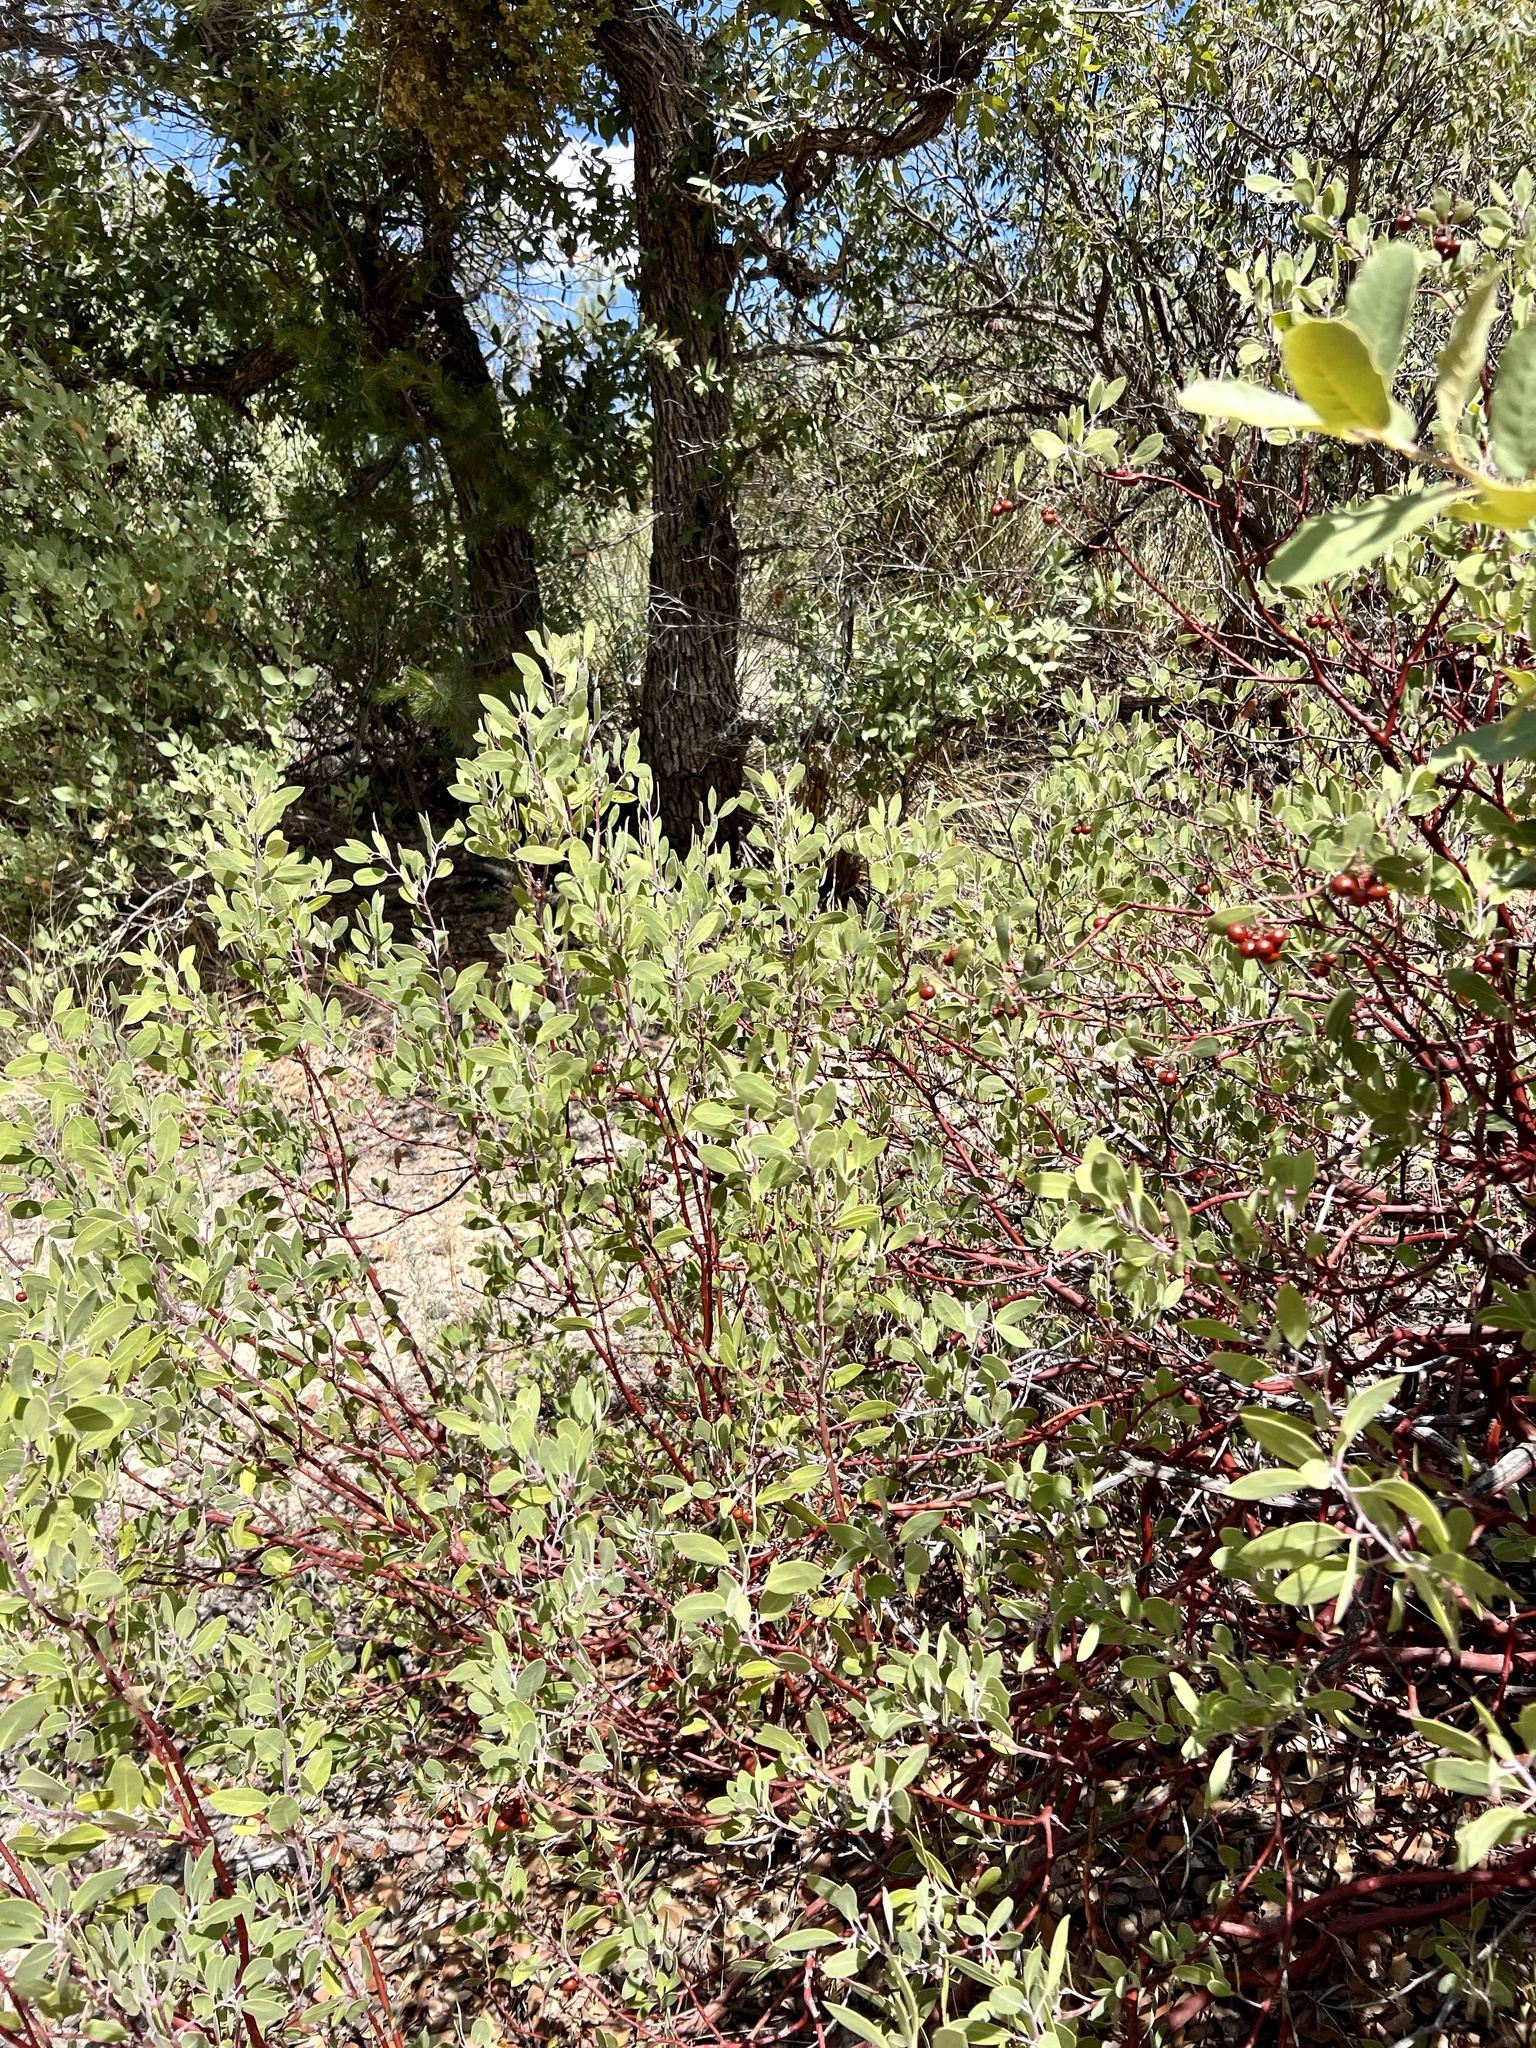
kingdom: Plantae
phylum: Tracheophyta
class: Magnoliopsida
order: Ericales
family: Ericaceae
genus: Arctostaphylos
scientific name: Arctostaphylos pungens
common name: Mexican manzanita
